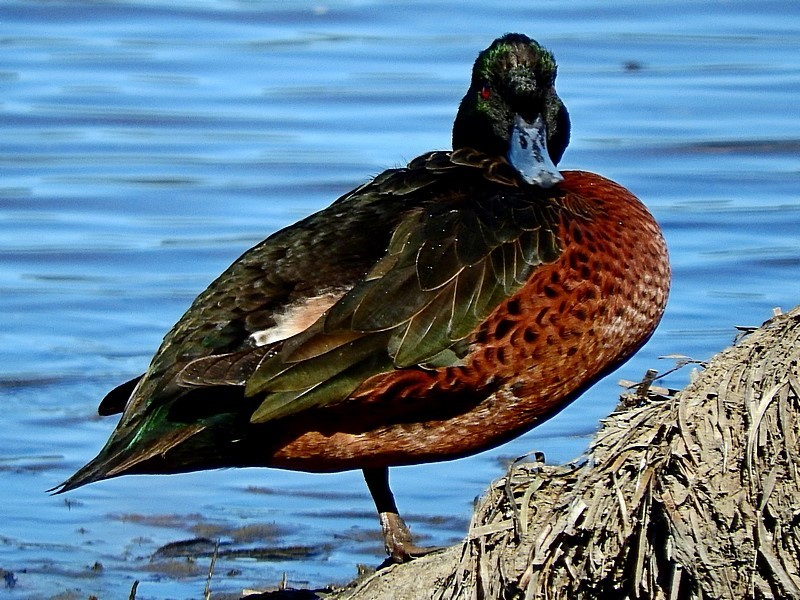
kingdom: Animalia
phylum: Chordata
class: Aves
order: Anseriformes
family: Anatidae
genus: Anas
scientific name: Anas castanea
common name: Chestnut teal
